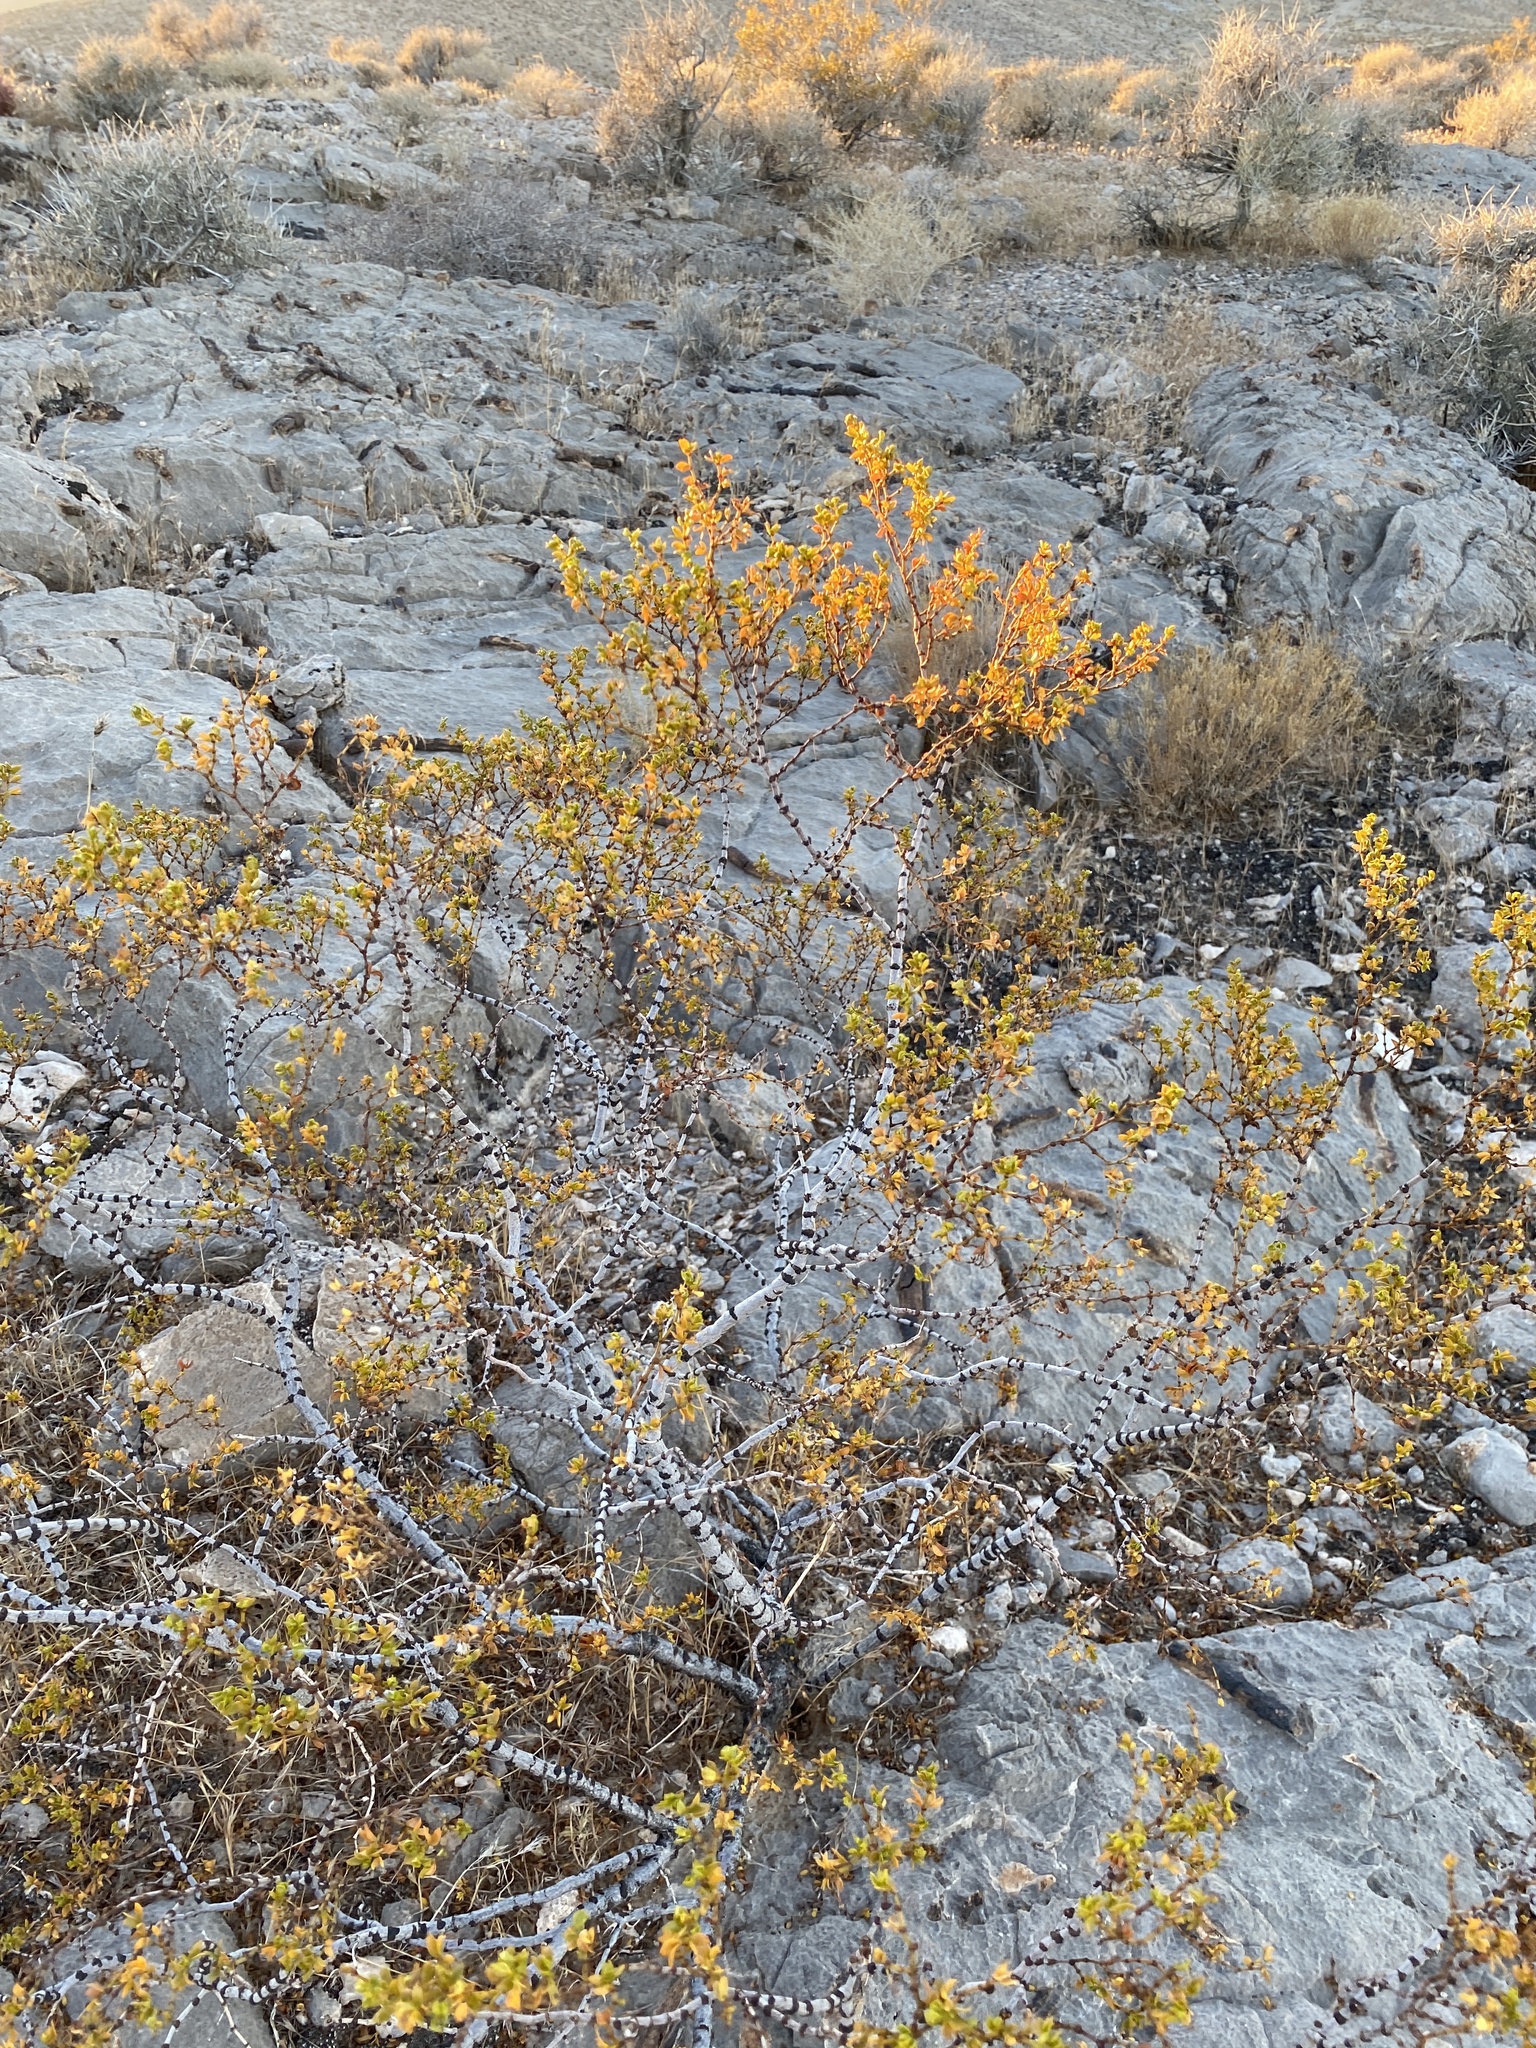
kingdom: Plantae
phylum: Tracheophyta
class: Magnoliopsida
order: Zygophyllales
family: Zygophyllaceae
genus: Larrea
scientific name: Larrea tridentata
